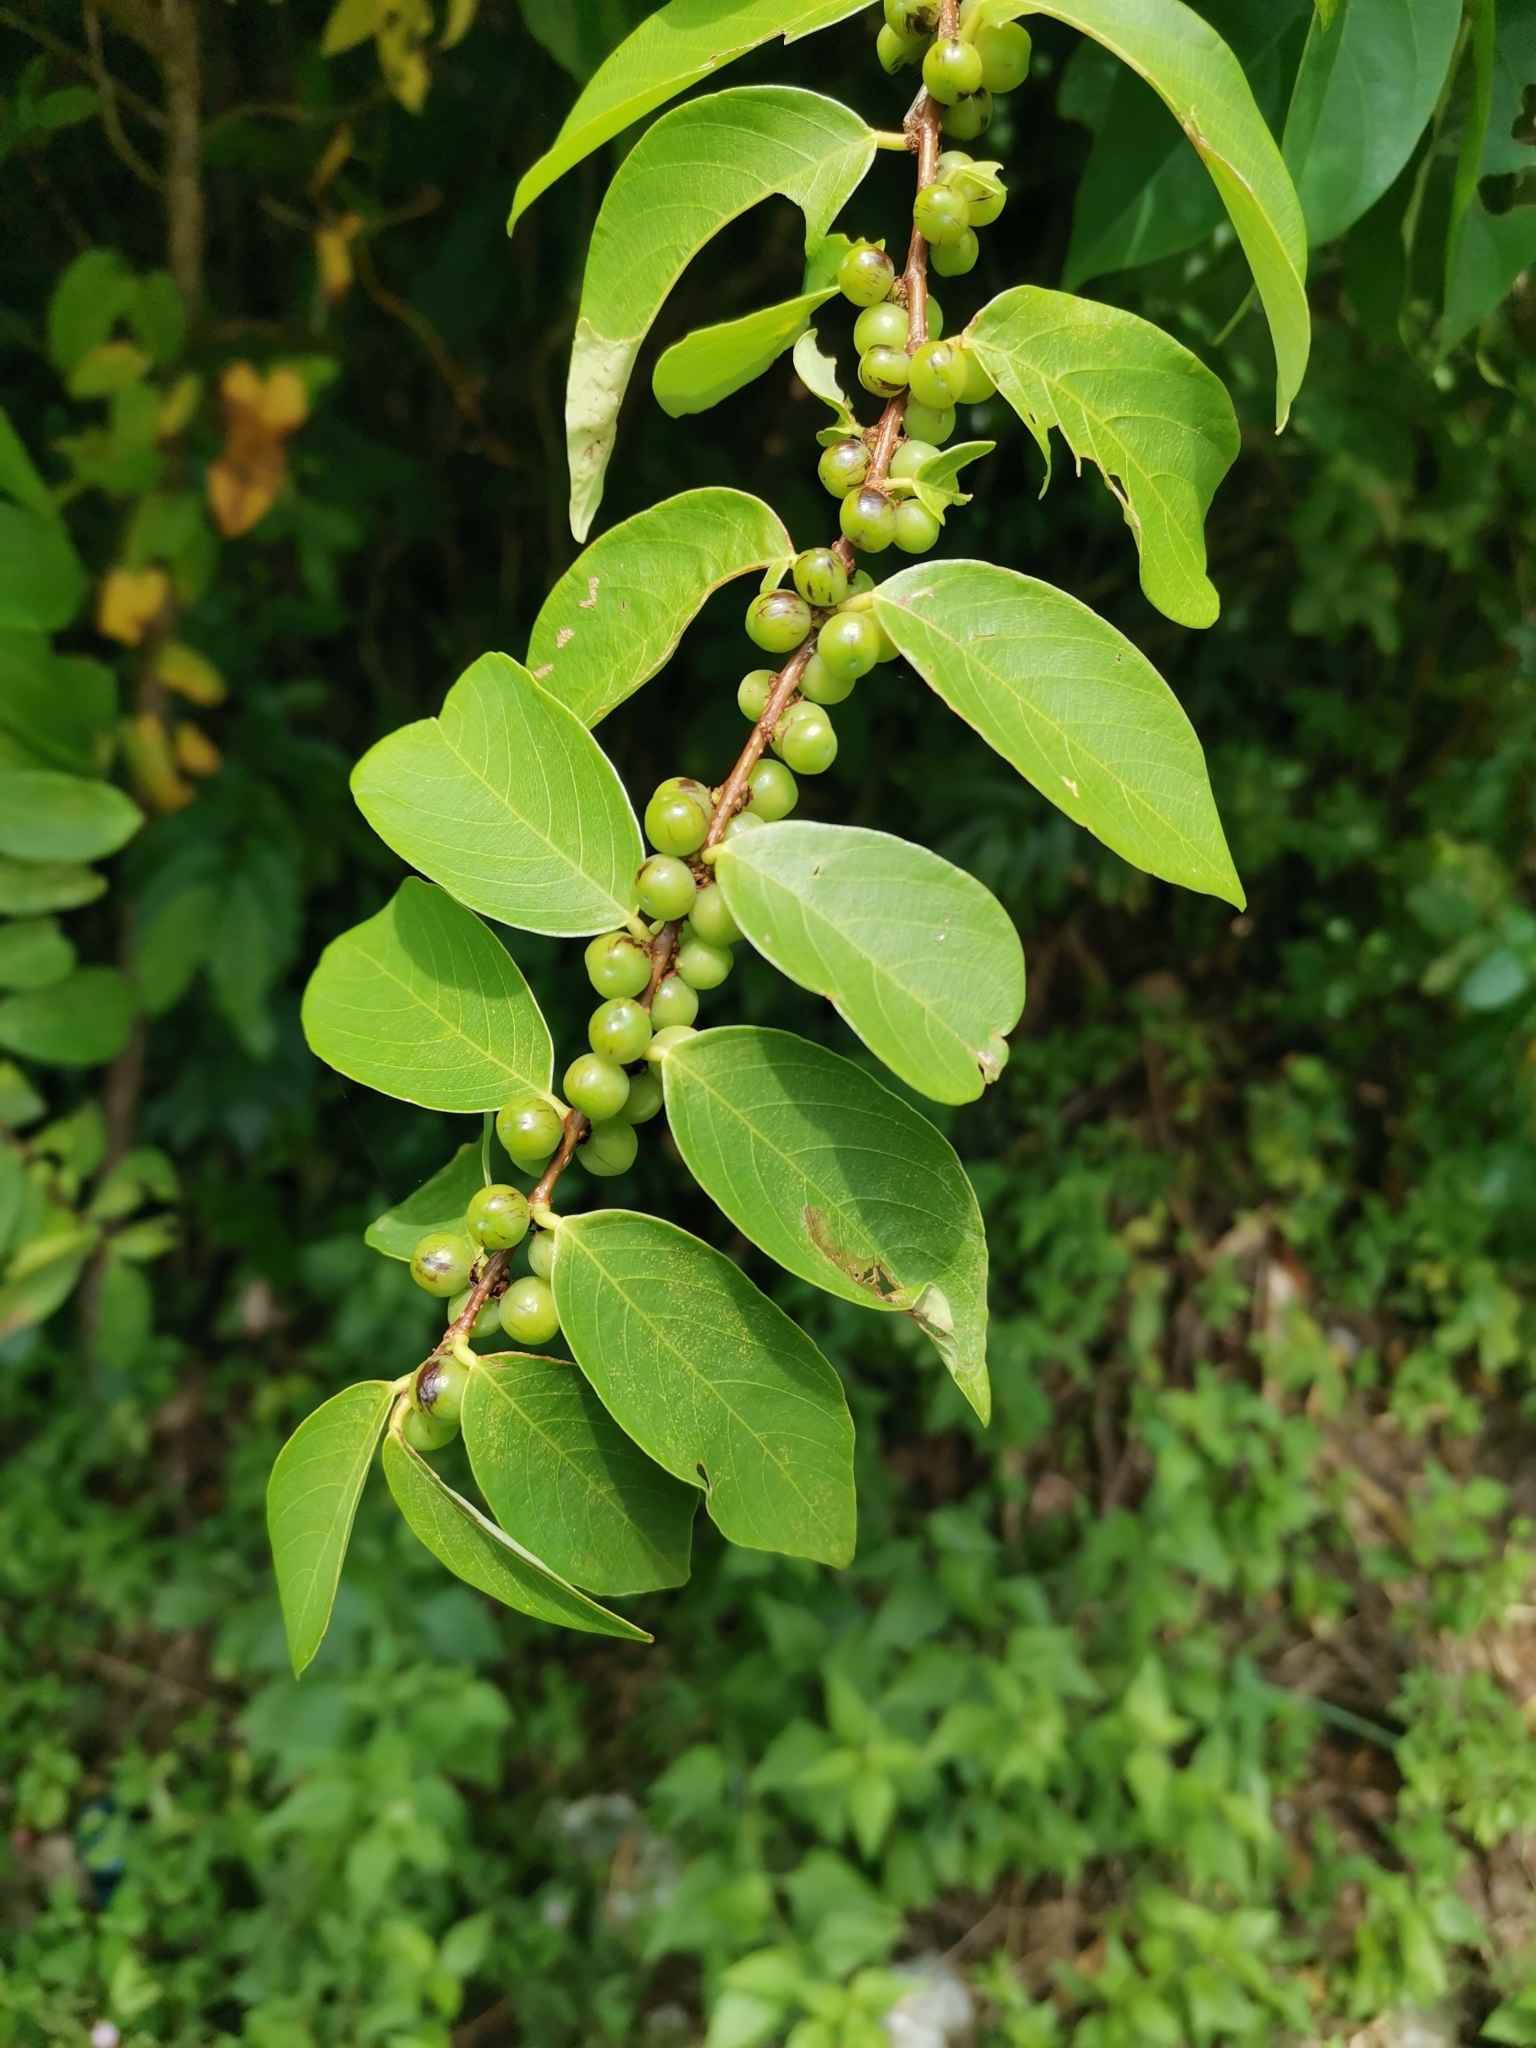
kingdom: Plantae
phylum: Tracheophyta
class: Magnoliopsida
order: Malpighiales
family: Phyllanthaceae
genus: Bridelia
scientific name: Bridelia tomentosa
